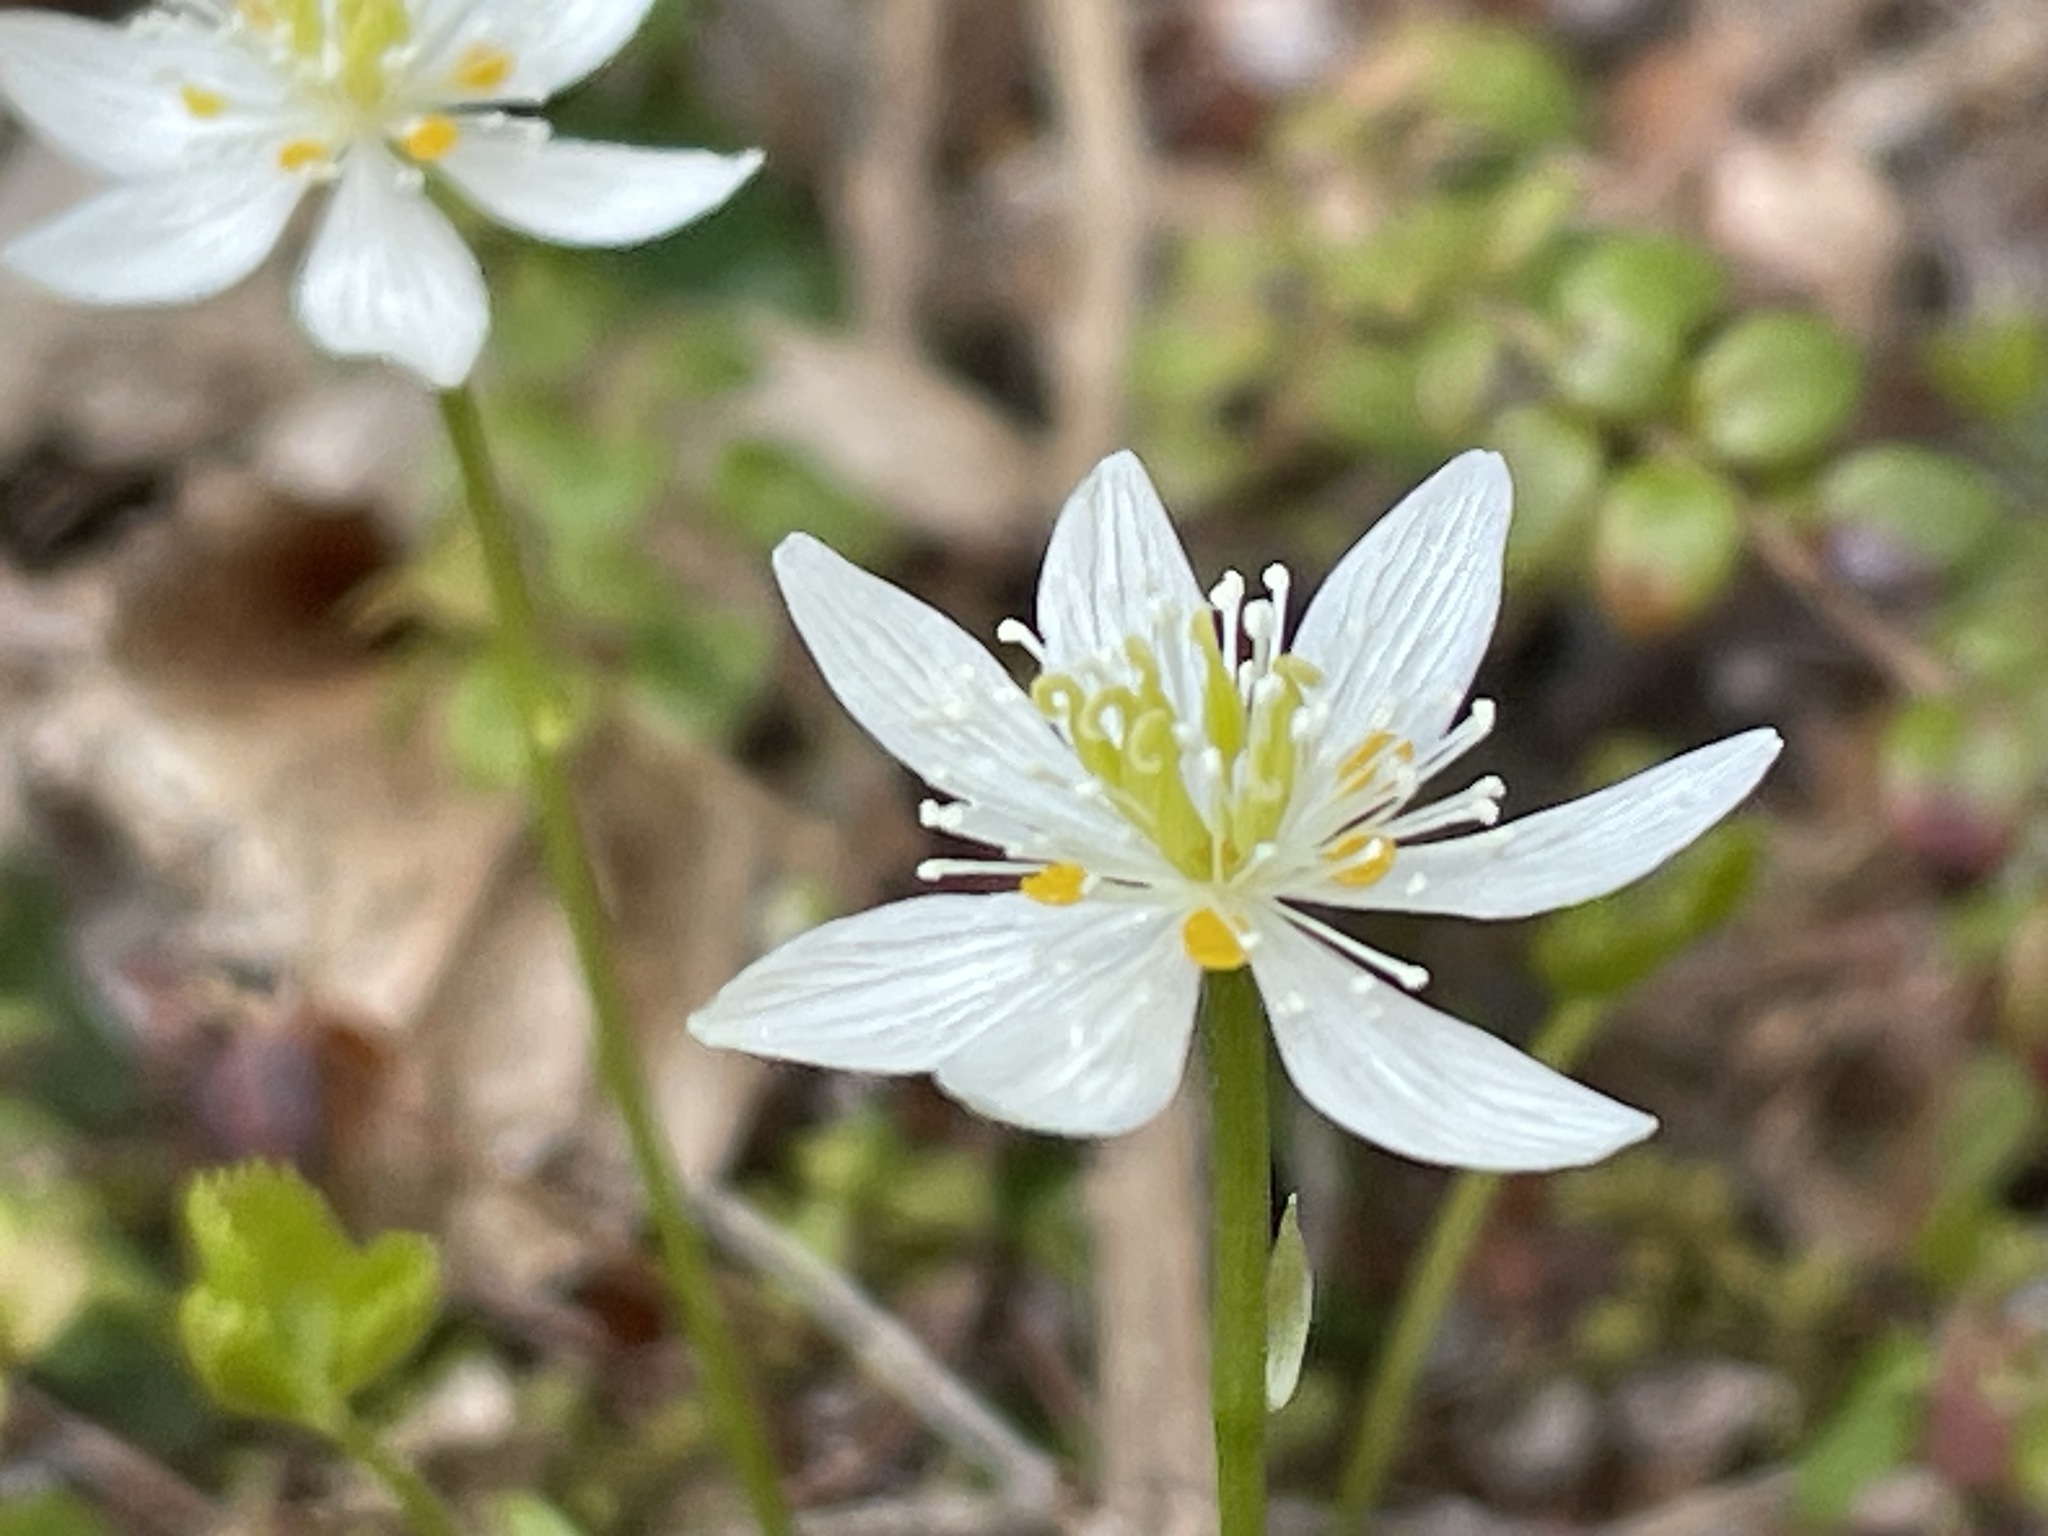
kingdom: Plantae
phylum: Tracheophyta
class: Magnoliopsida
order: Ranunculales
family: Ranunculaceae
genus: Coptis
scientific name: Coptis trifolia
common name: Canker-root
